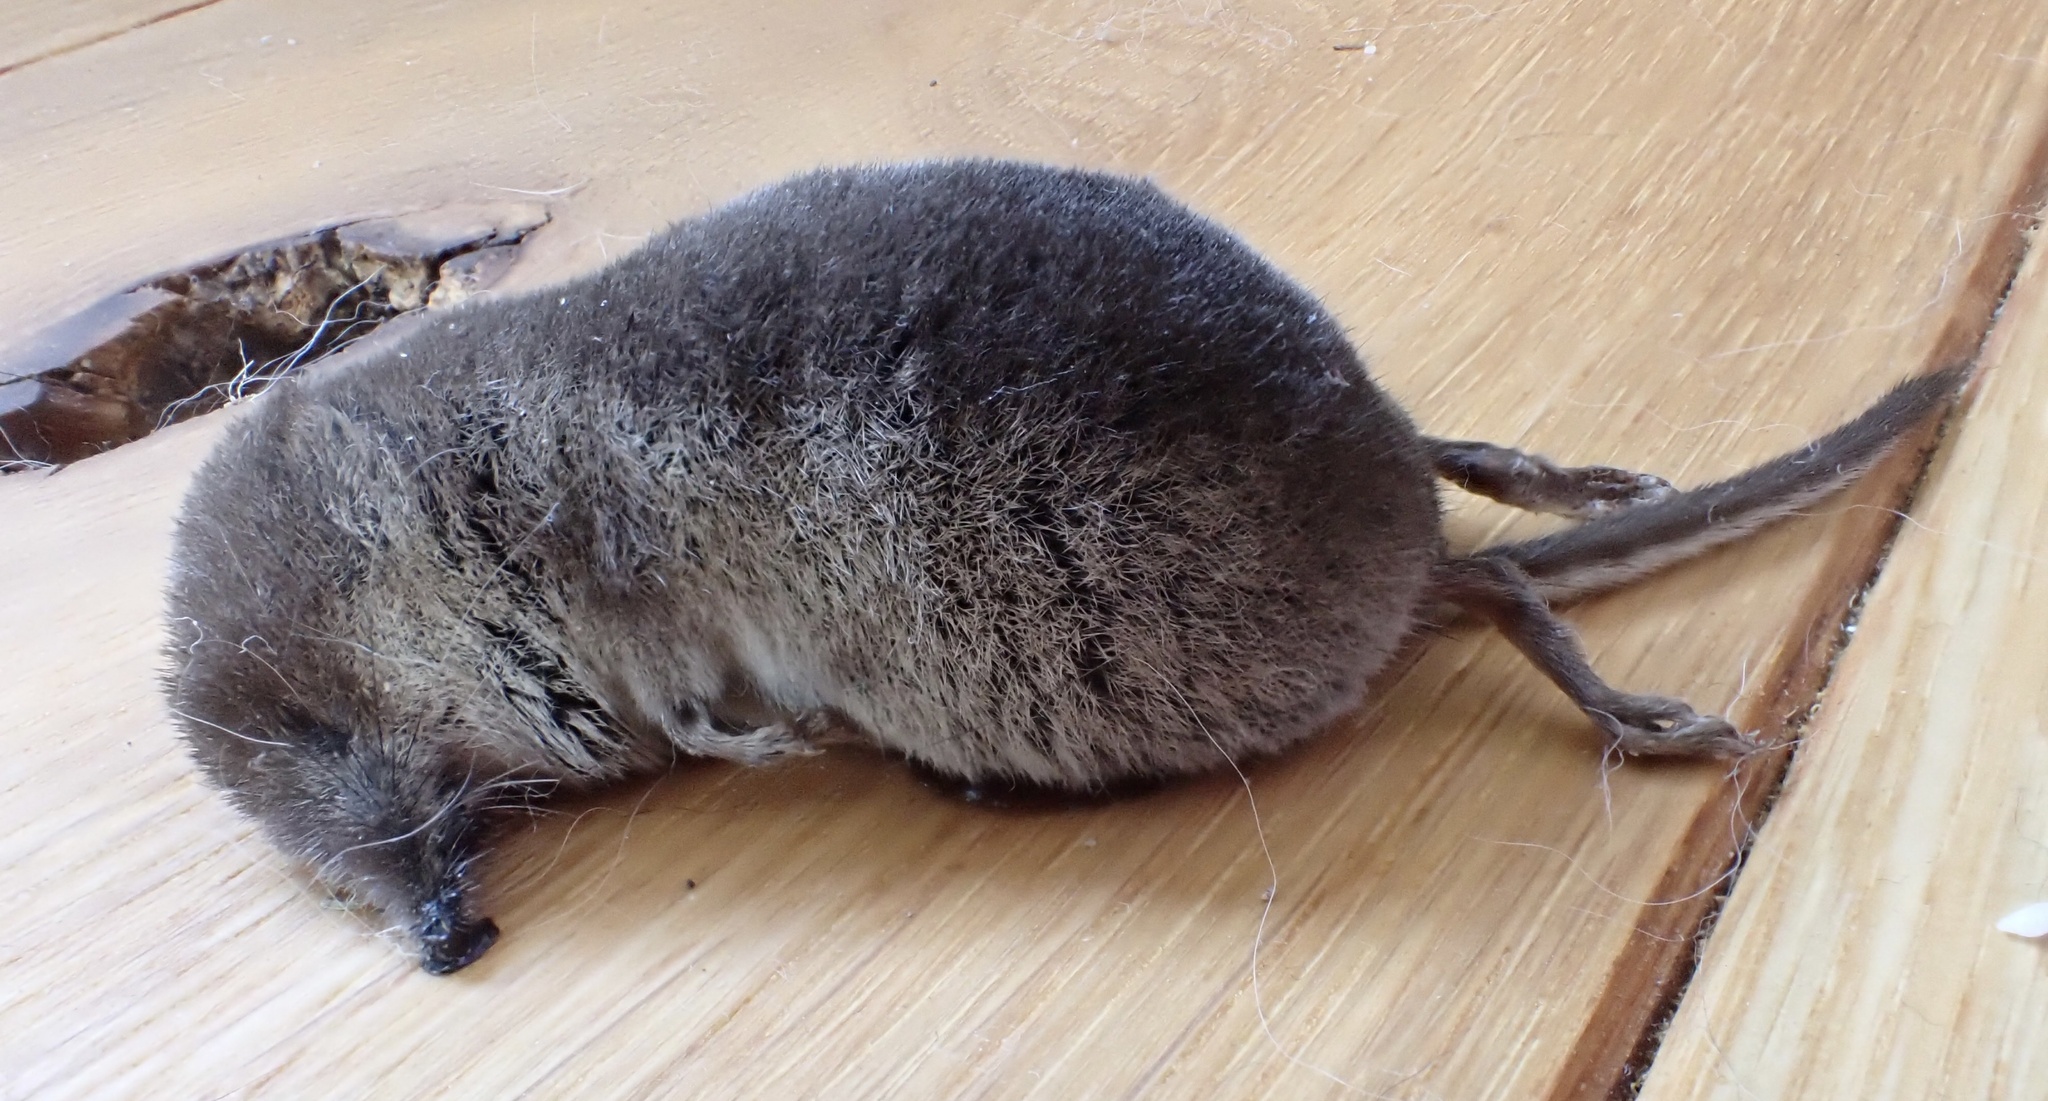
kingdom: Animalia
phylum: Chordata
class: Mammalia
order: Soricomorpha
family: Soricidae
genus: Sorex
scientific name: Sorex minutus
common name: Eurasian pygmy shrew
